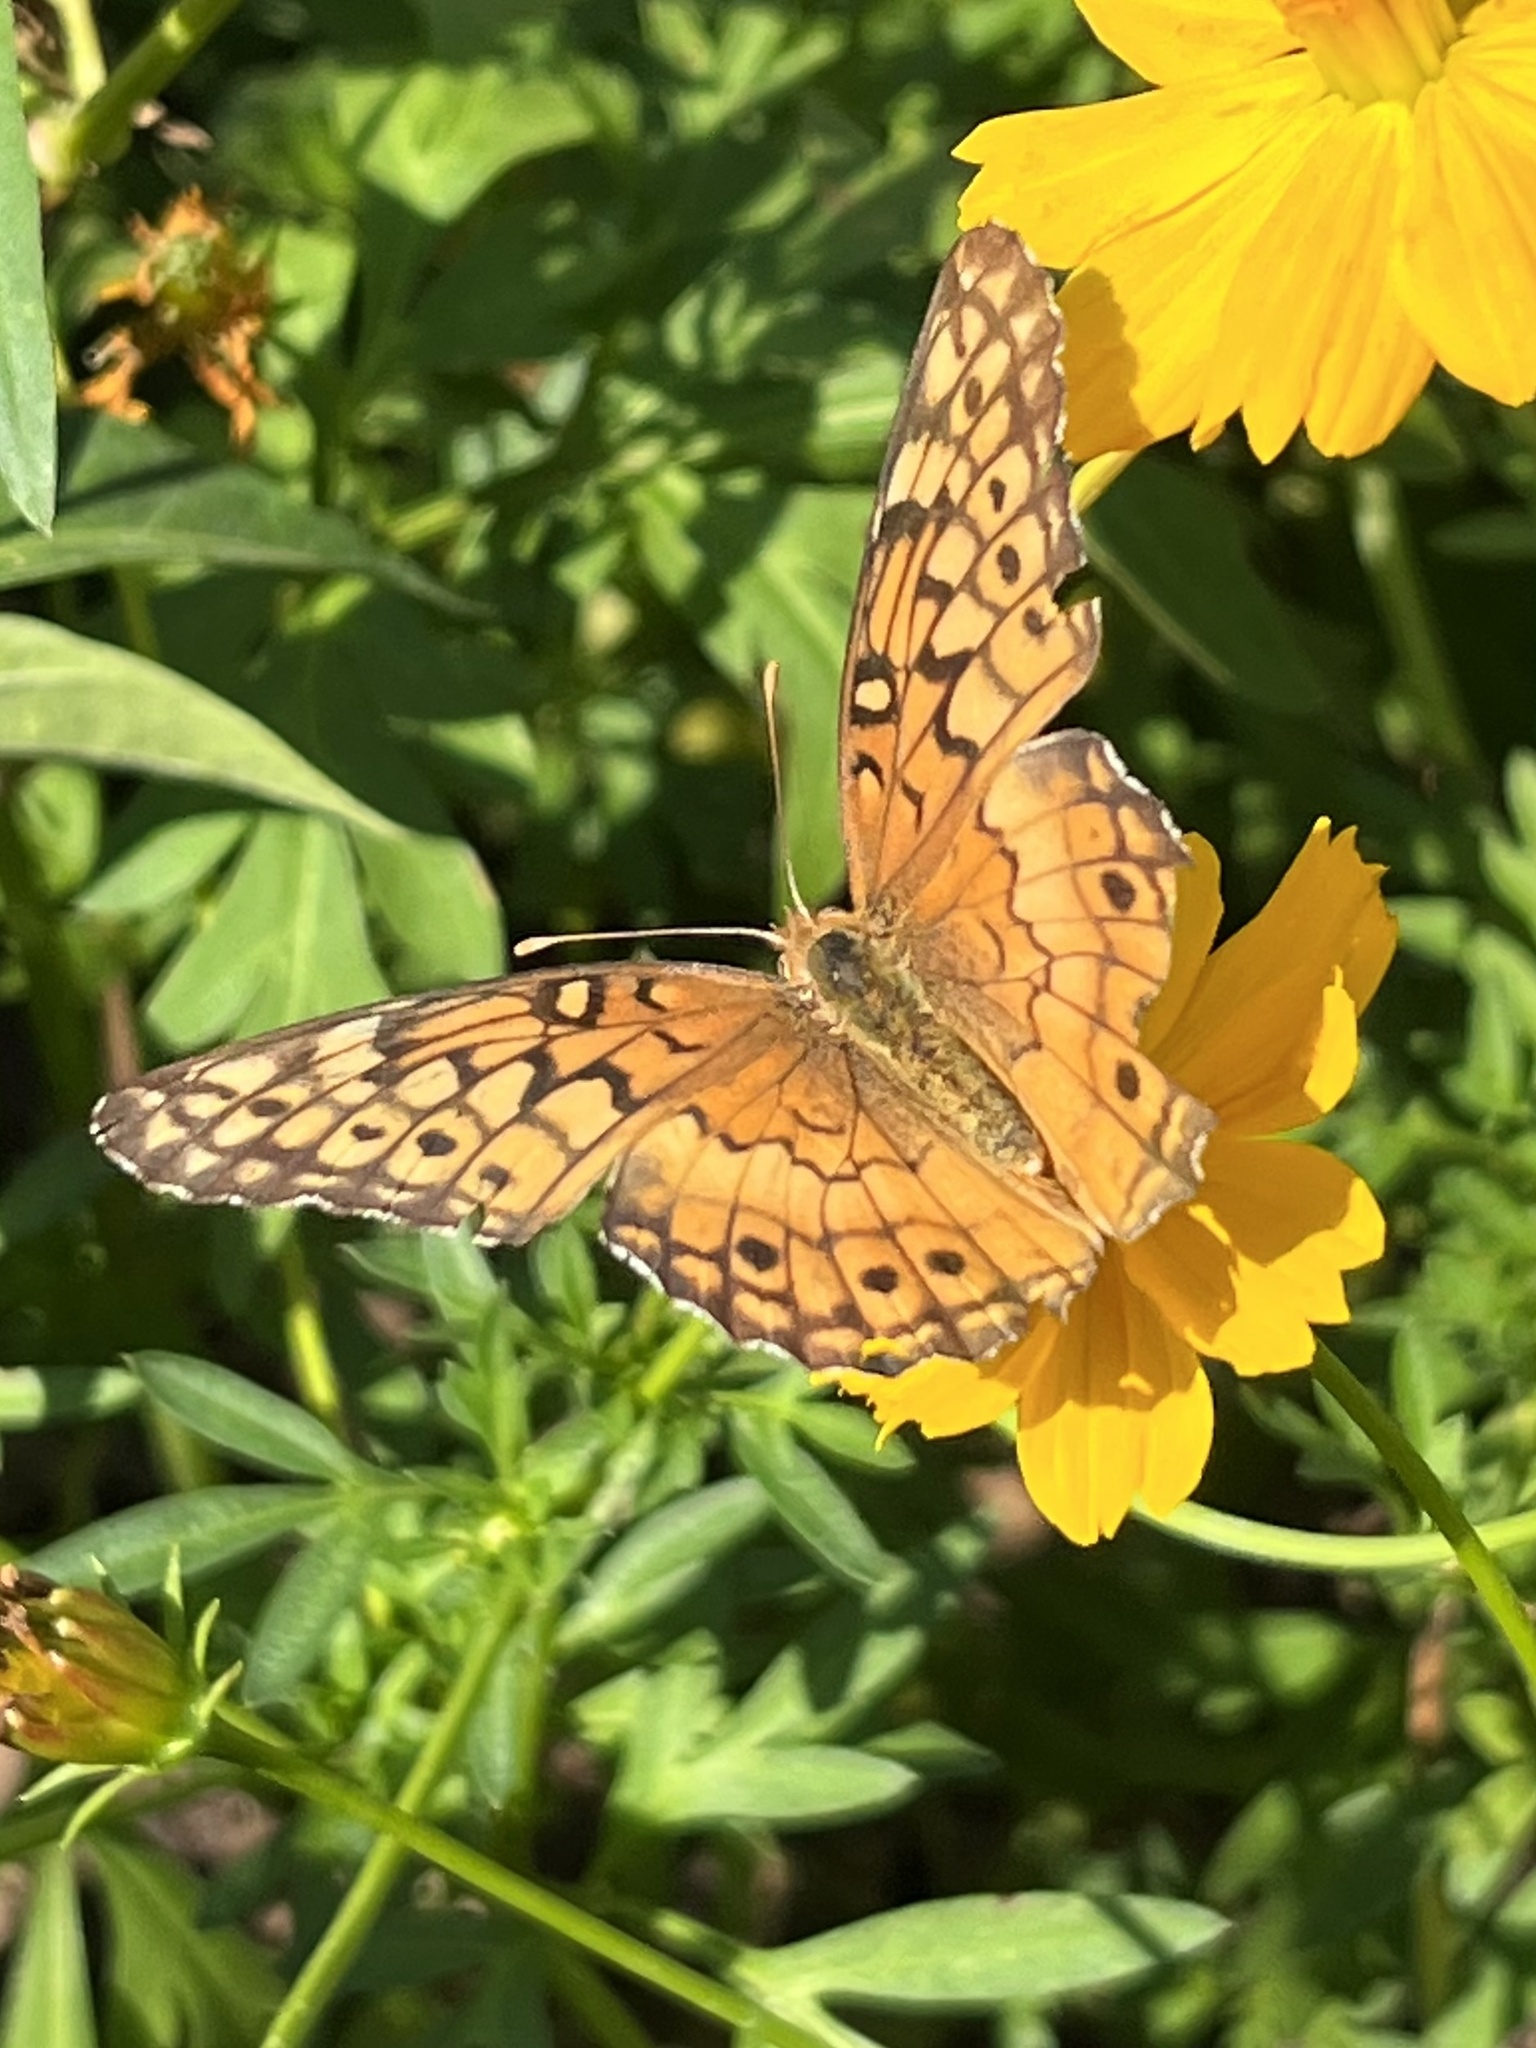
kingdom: Animalia
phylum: Arthropoda
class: Insecta
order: Lepidoptera
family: Nymphalidae
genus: Euptoieta
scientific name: Euptoieta claudia
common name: Variegated fritillary
